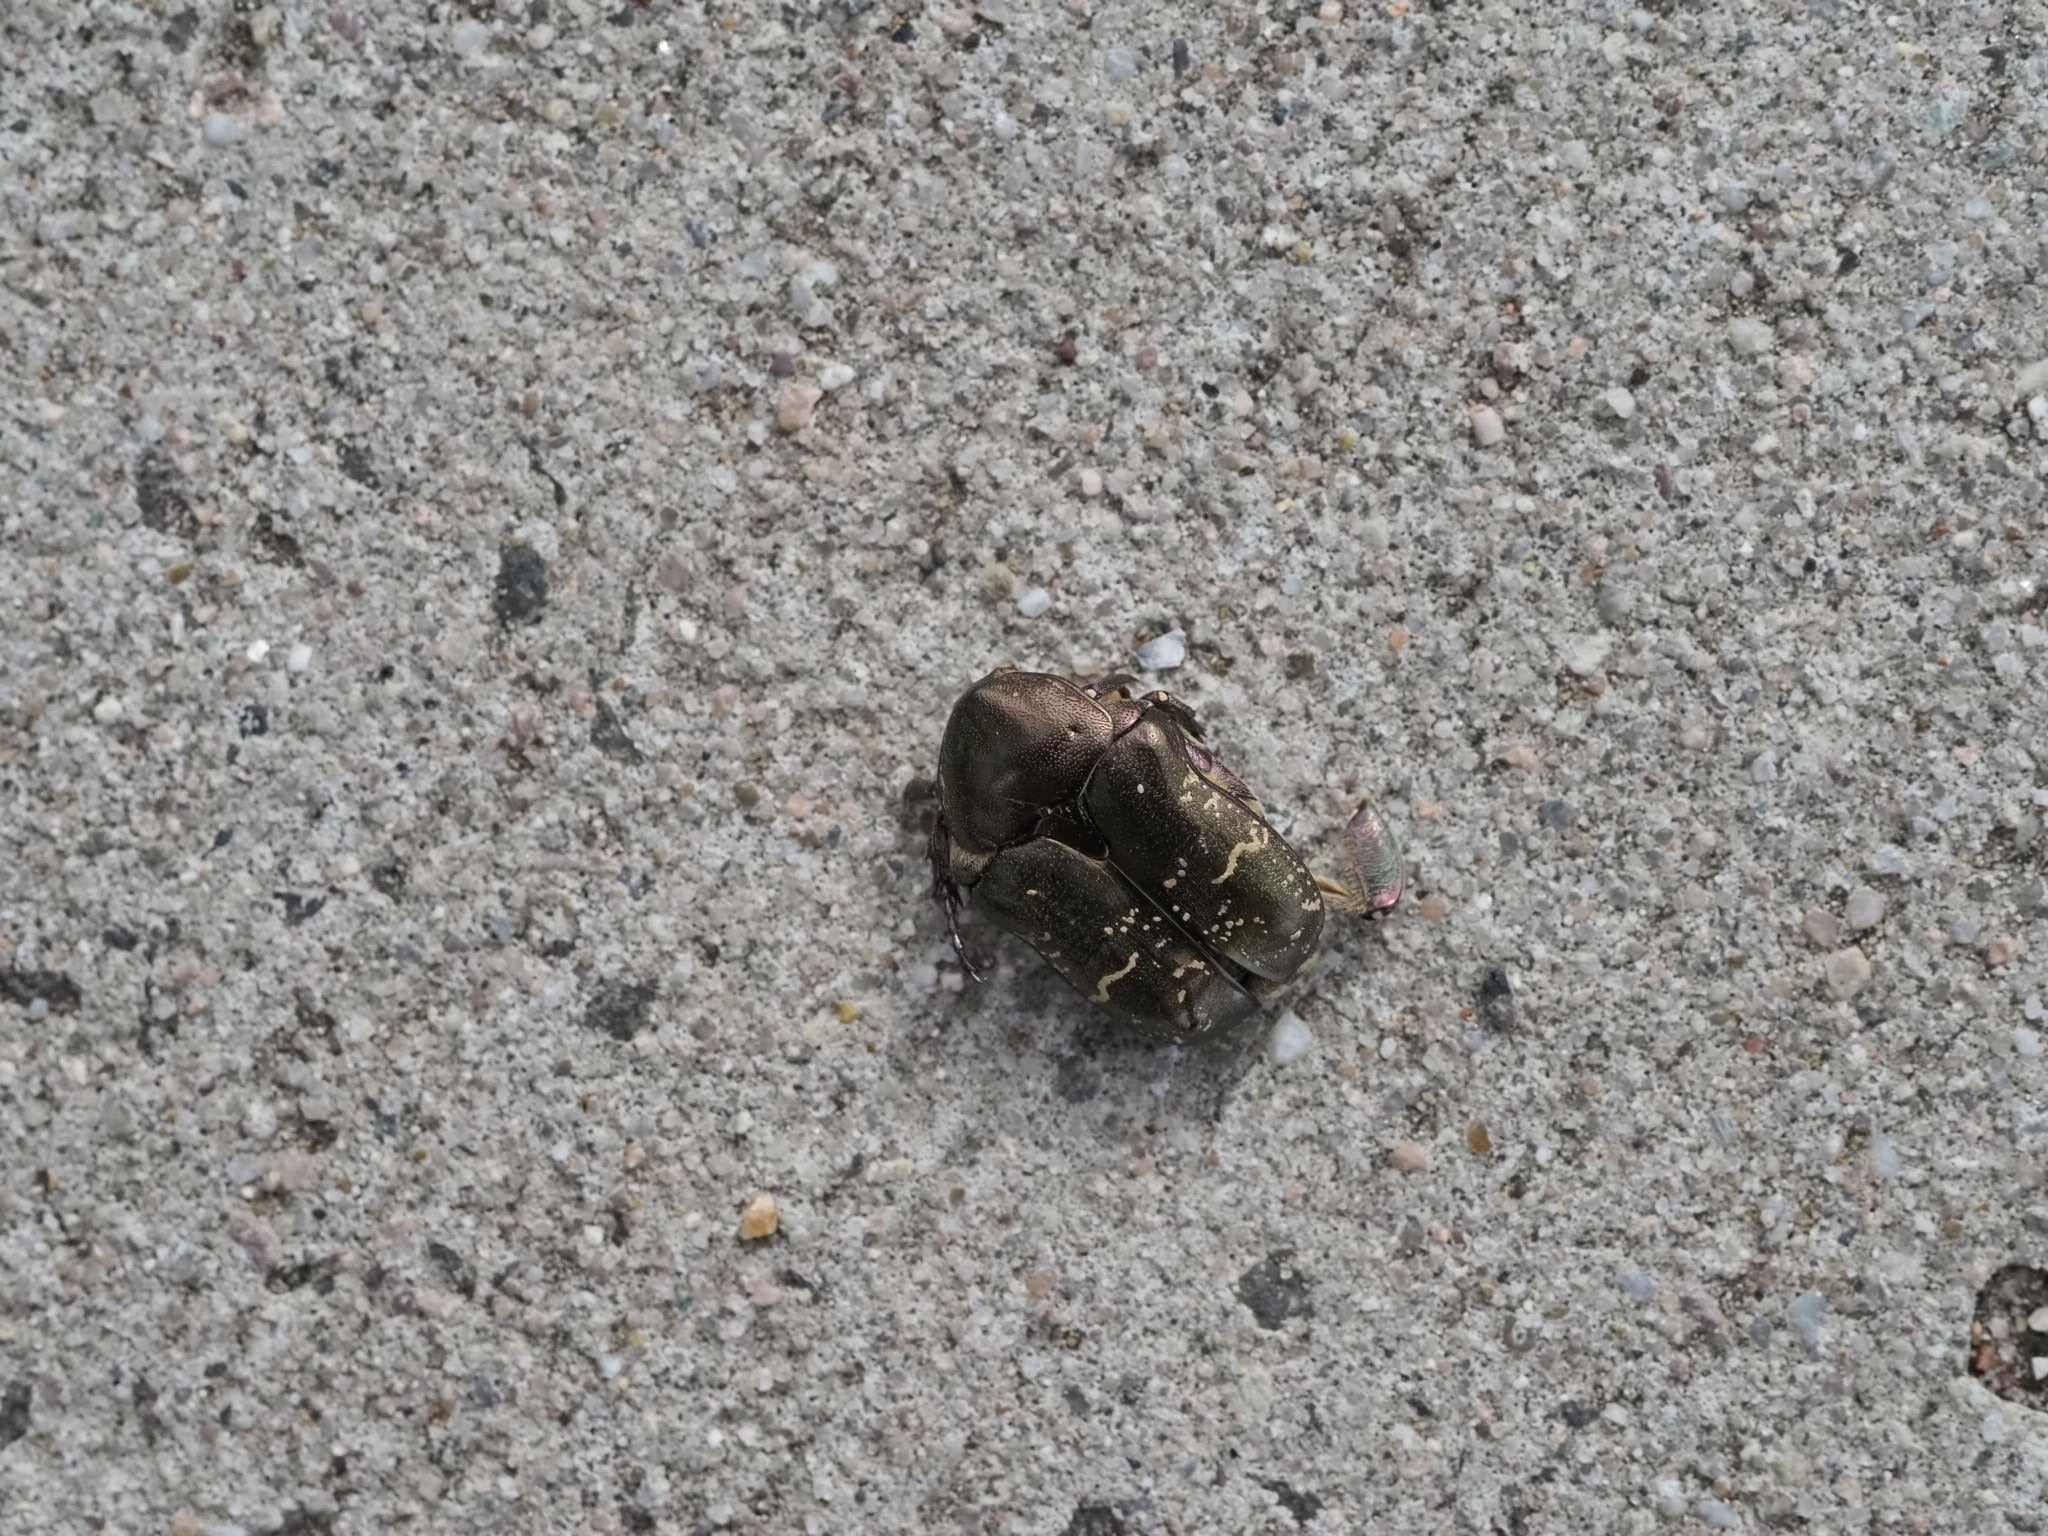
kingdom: Animalia
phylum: Arthropoda
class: Insecta
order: Coleoptera
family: Scarabaeidae
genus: Protaetia
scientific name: Protaetia cuprea
